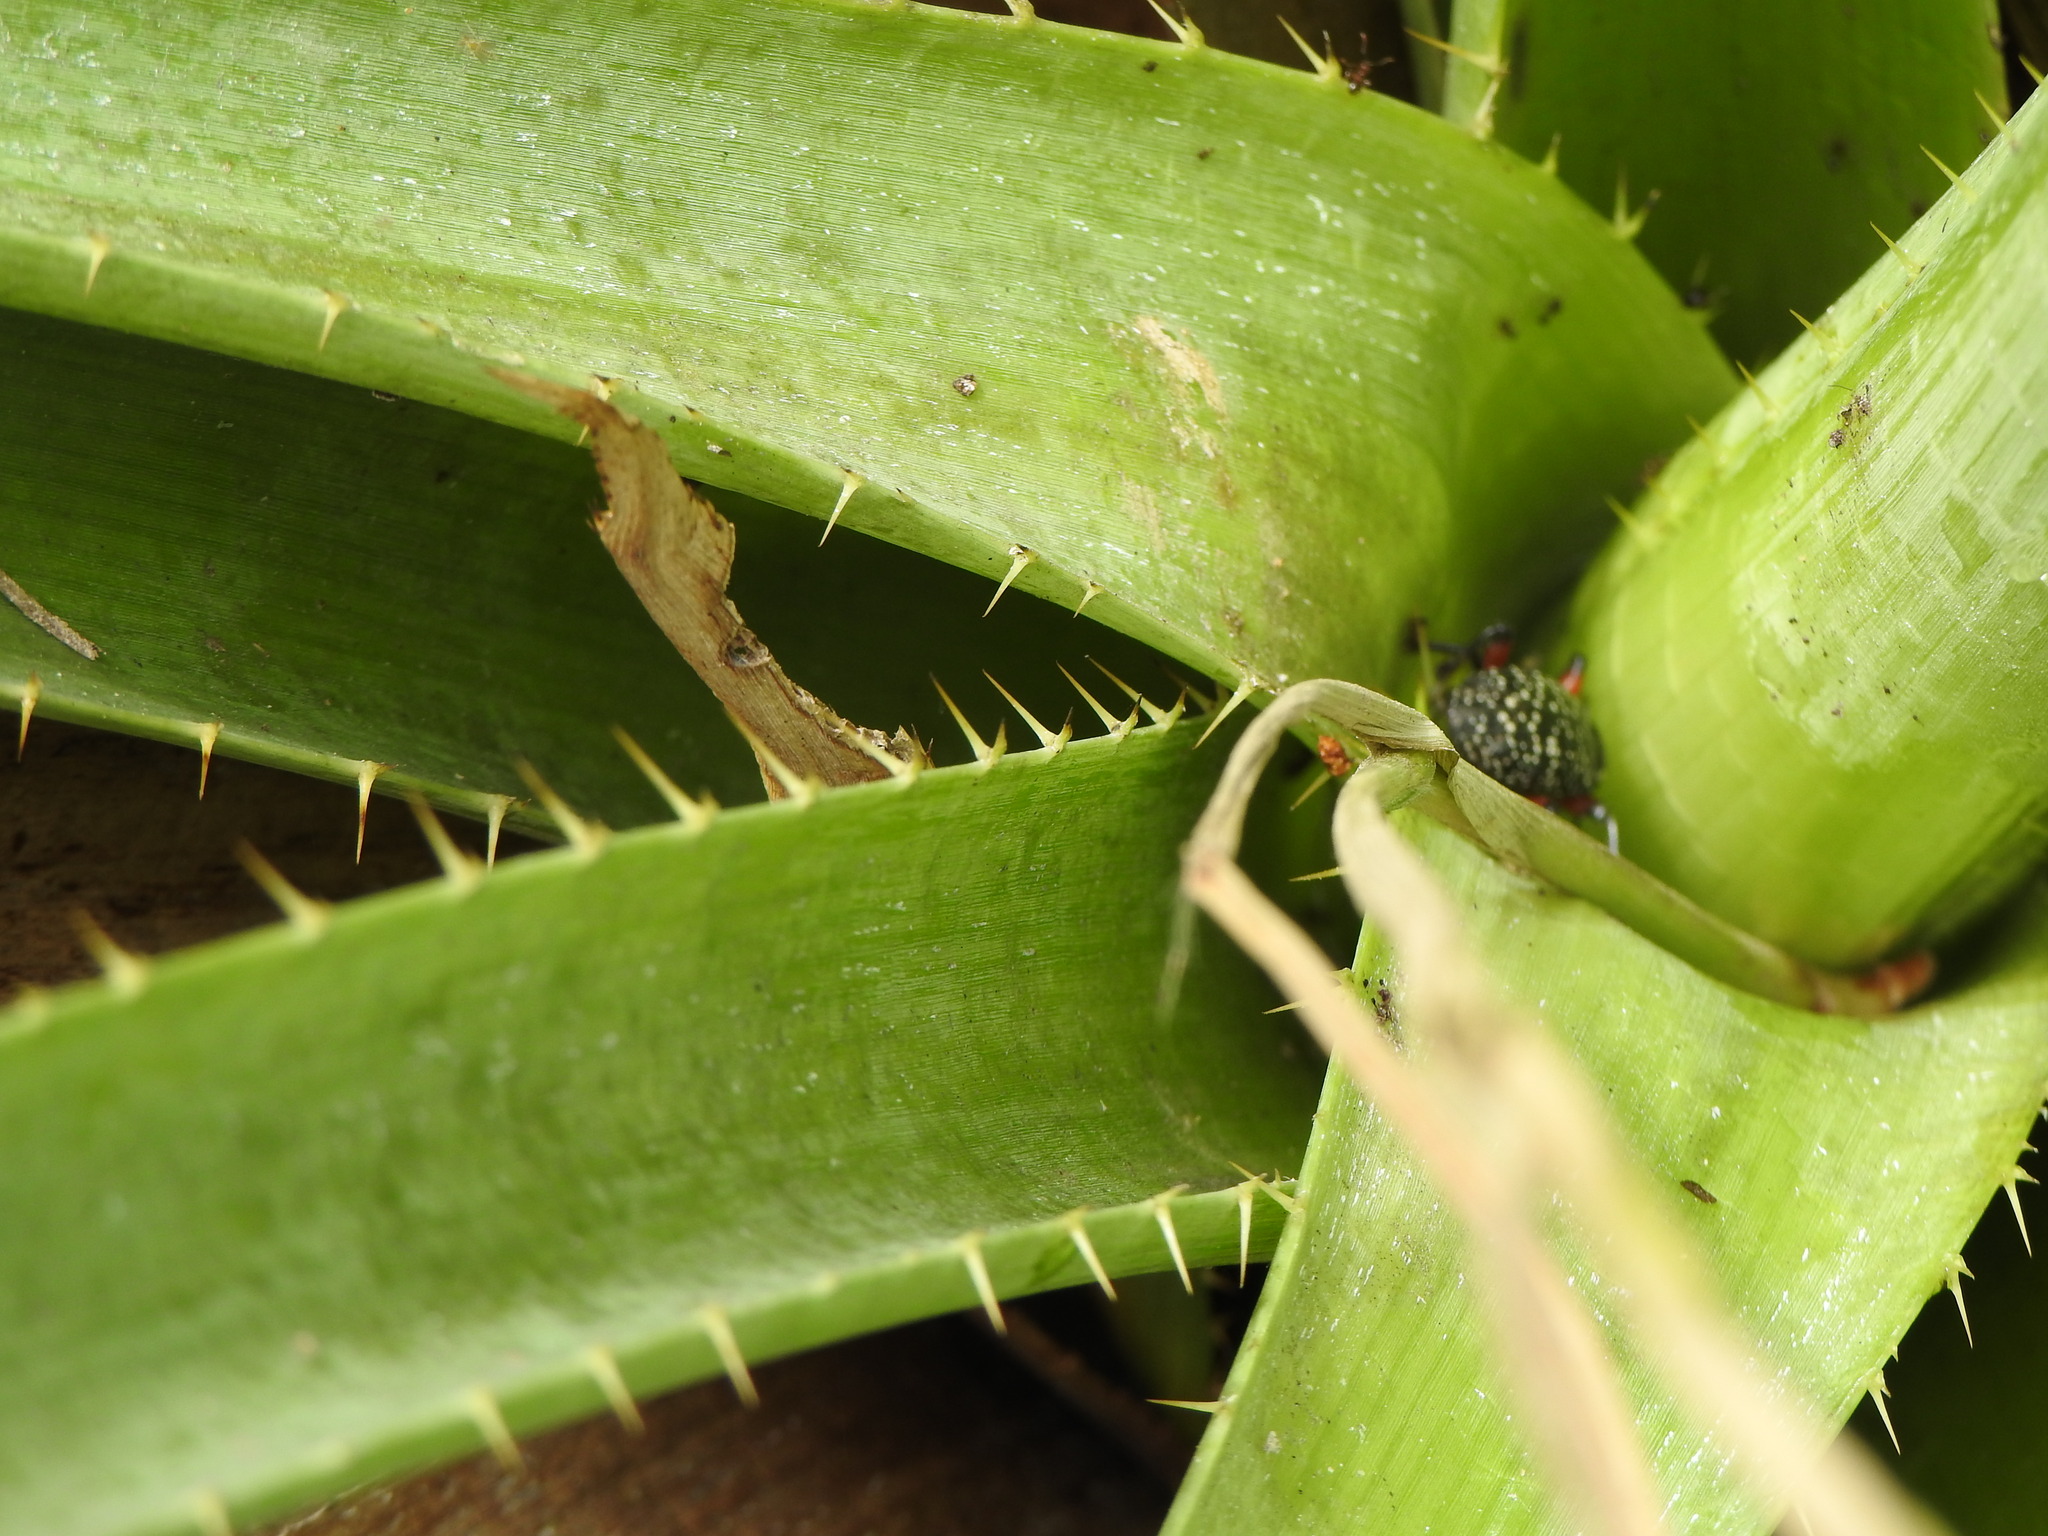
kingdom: Animalia
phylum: Arthropoda
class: Insecta
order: Coleoptera
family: Curculionidae
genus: Heilipodus
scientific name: Heilipodus erythropus
